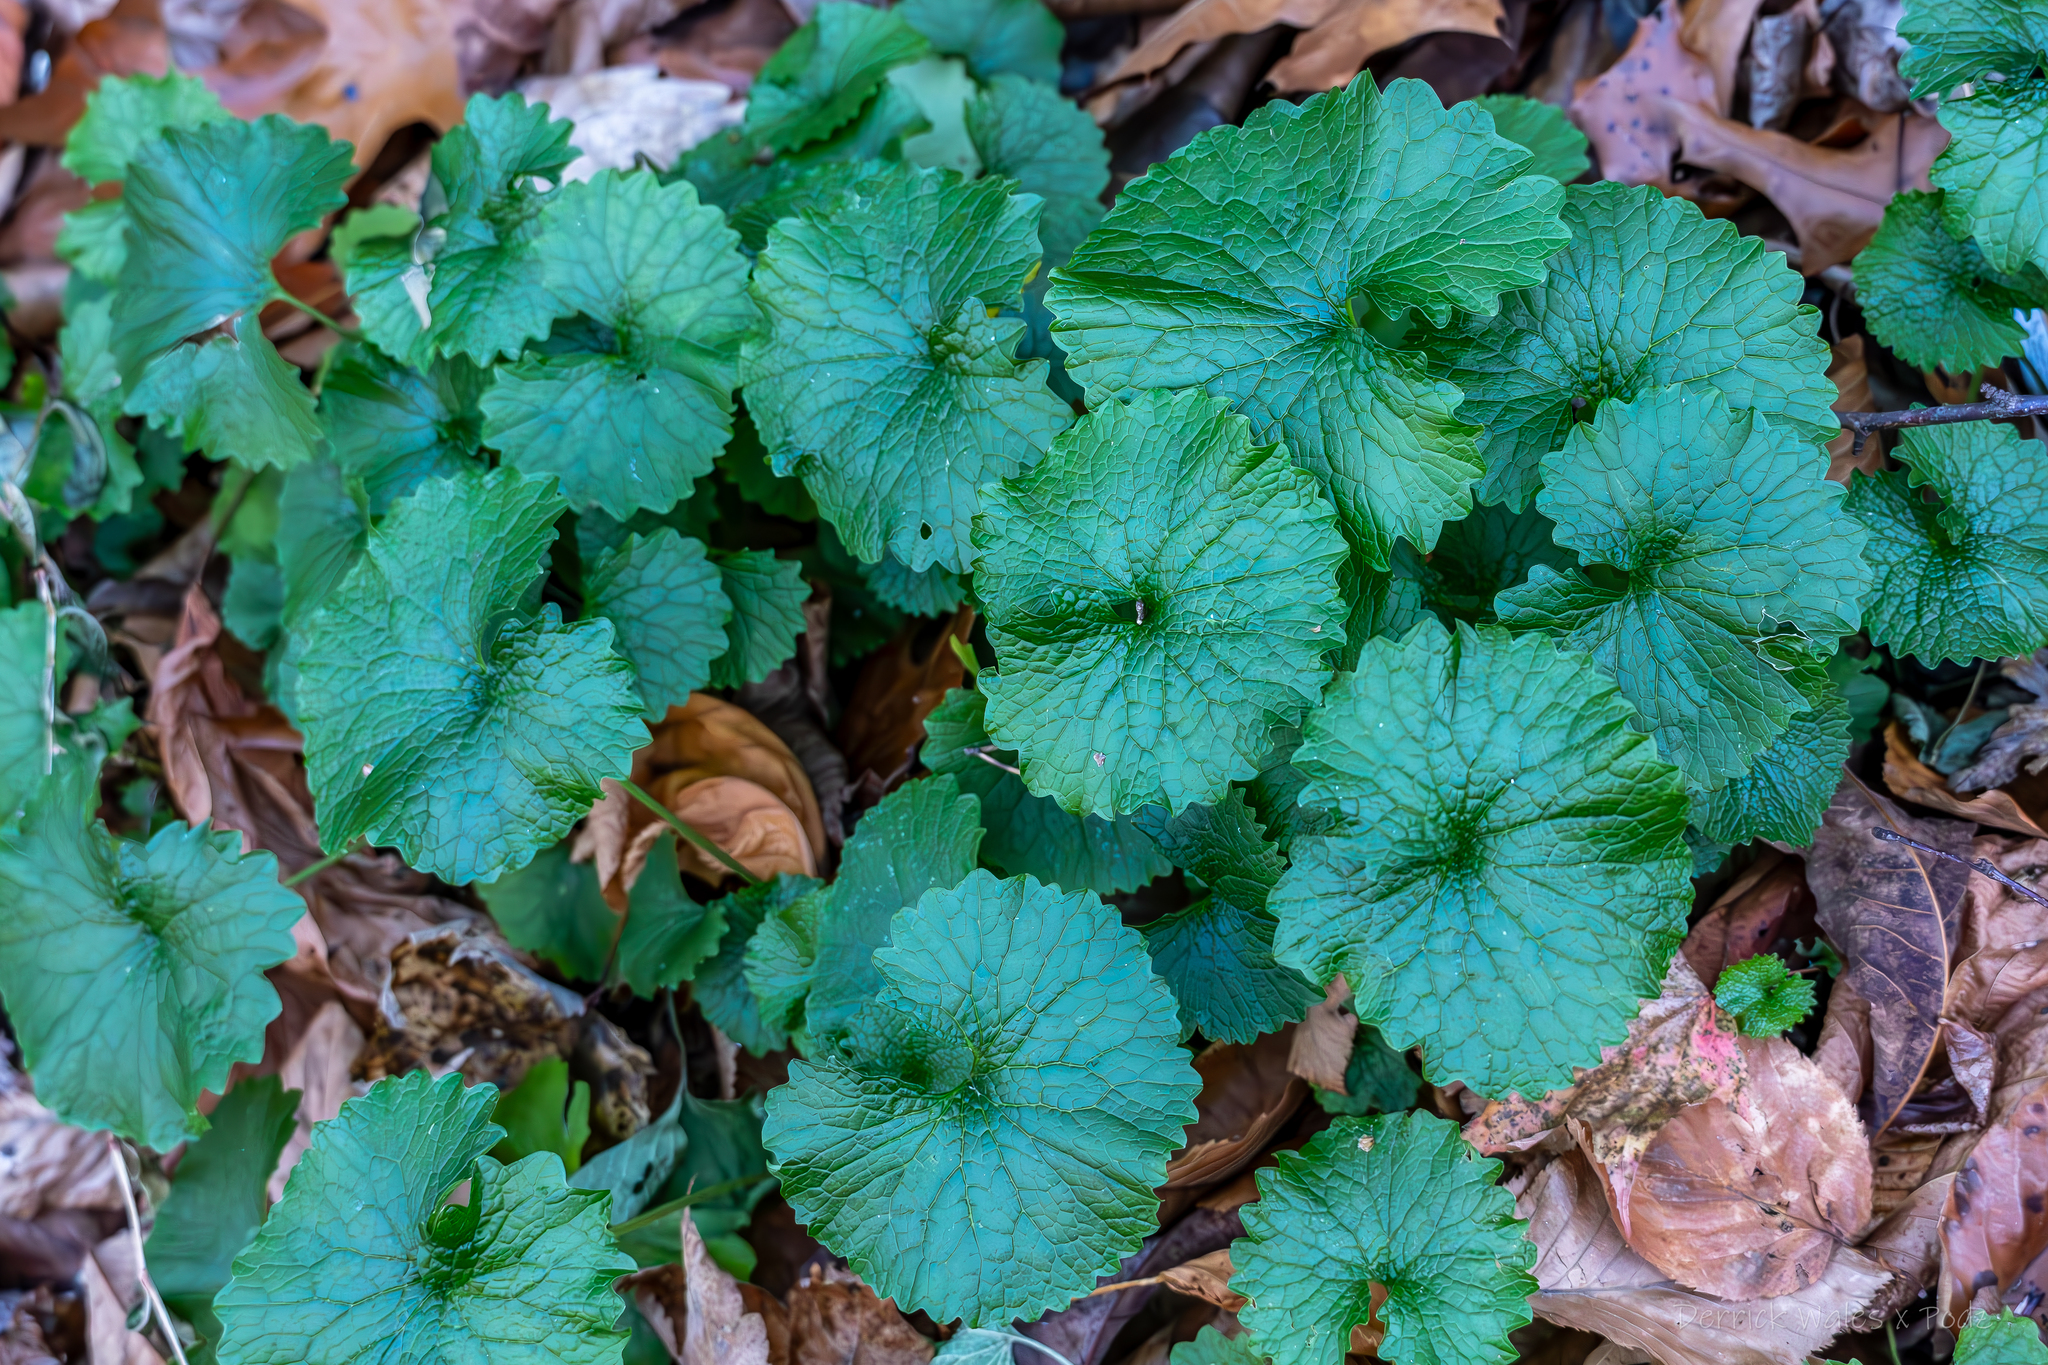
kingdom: Plantae
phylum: Tracheophyta
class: Magnoliopsida
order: Brassicales
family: Brassicaceae
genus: Alliaria
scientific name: Alliaria petiolata
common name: Garlic mustard
